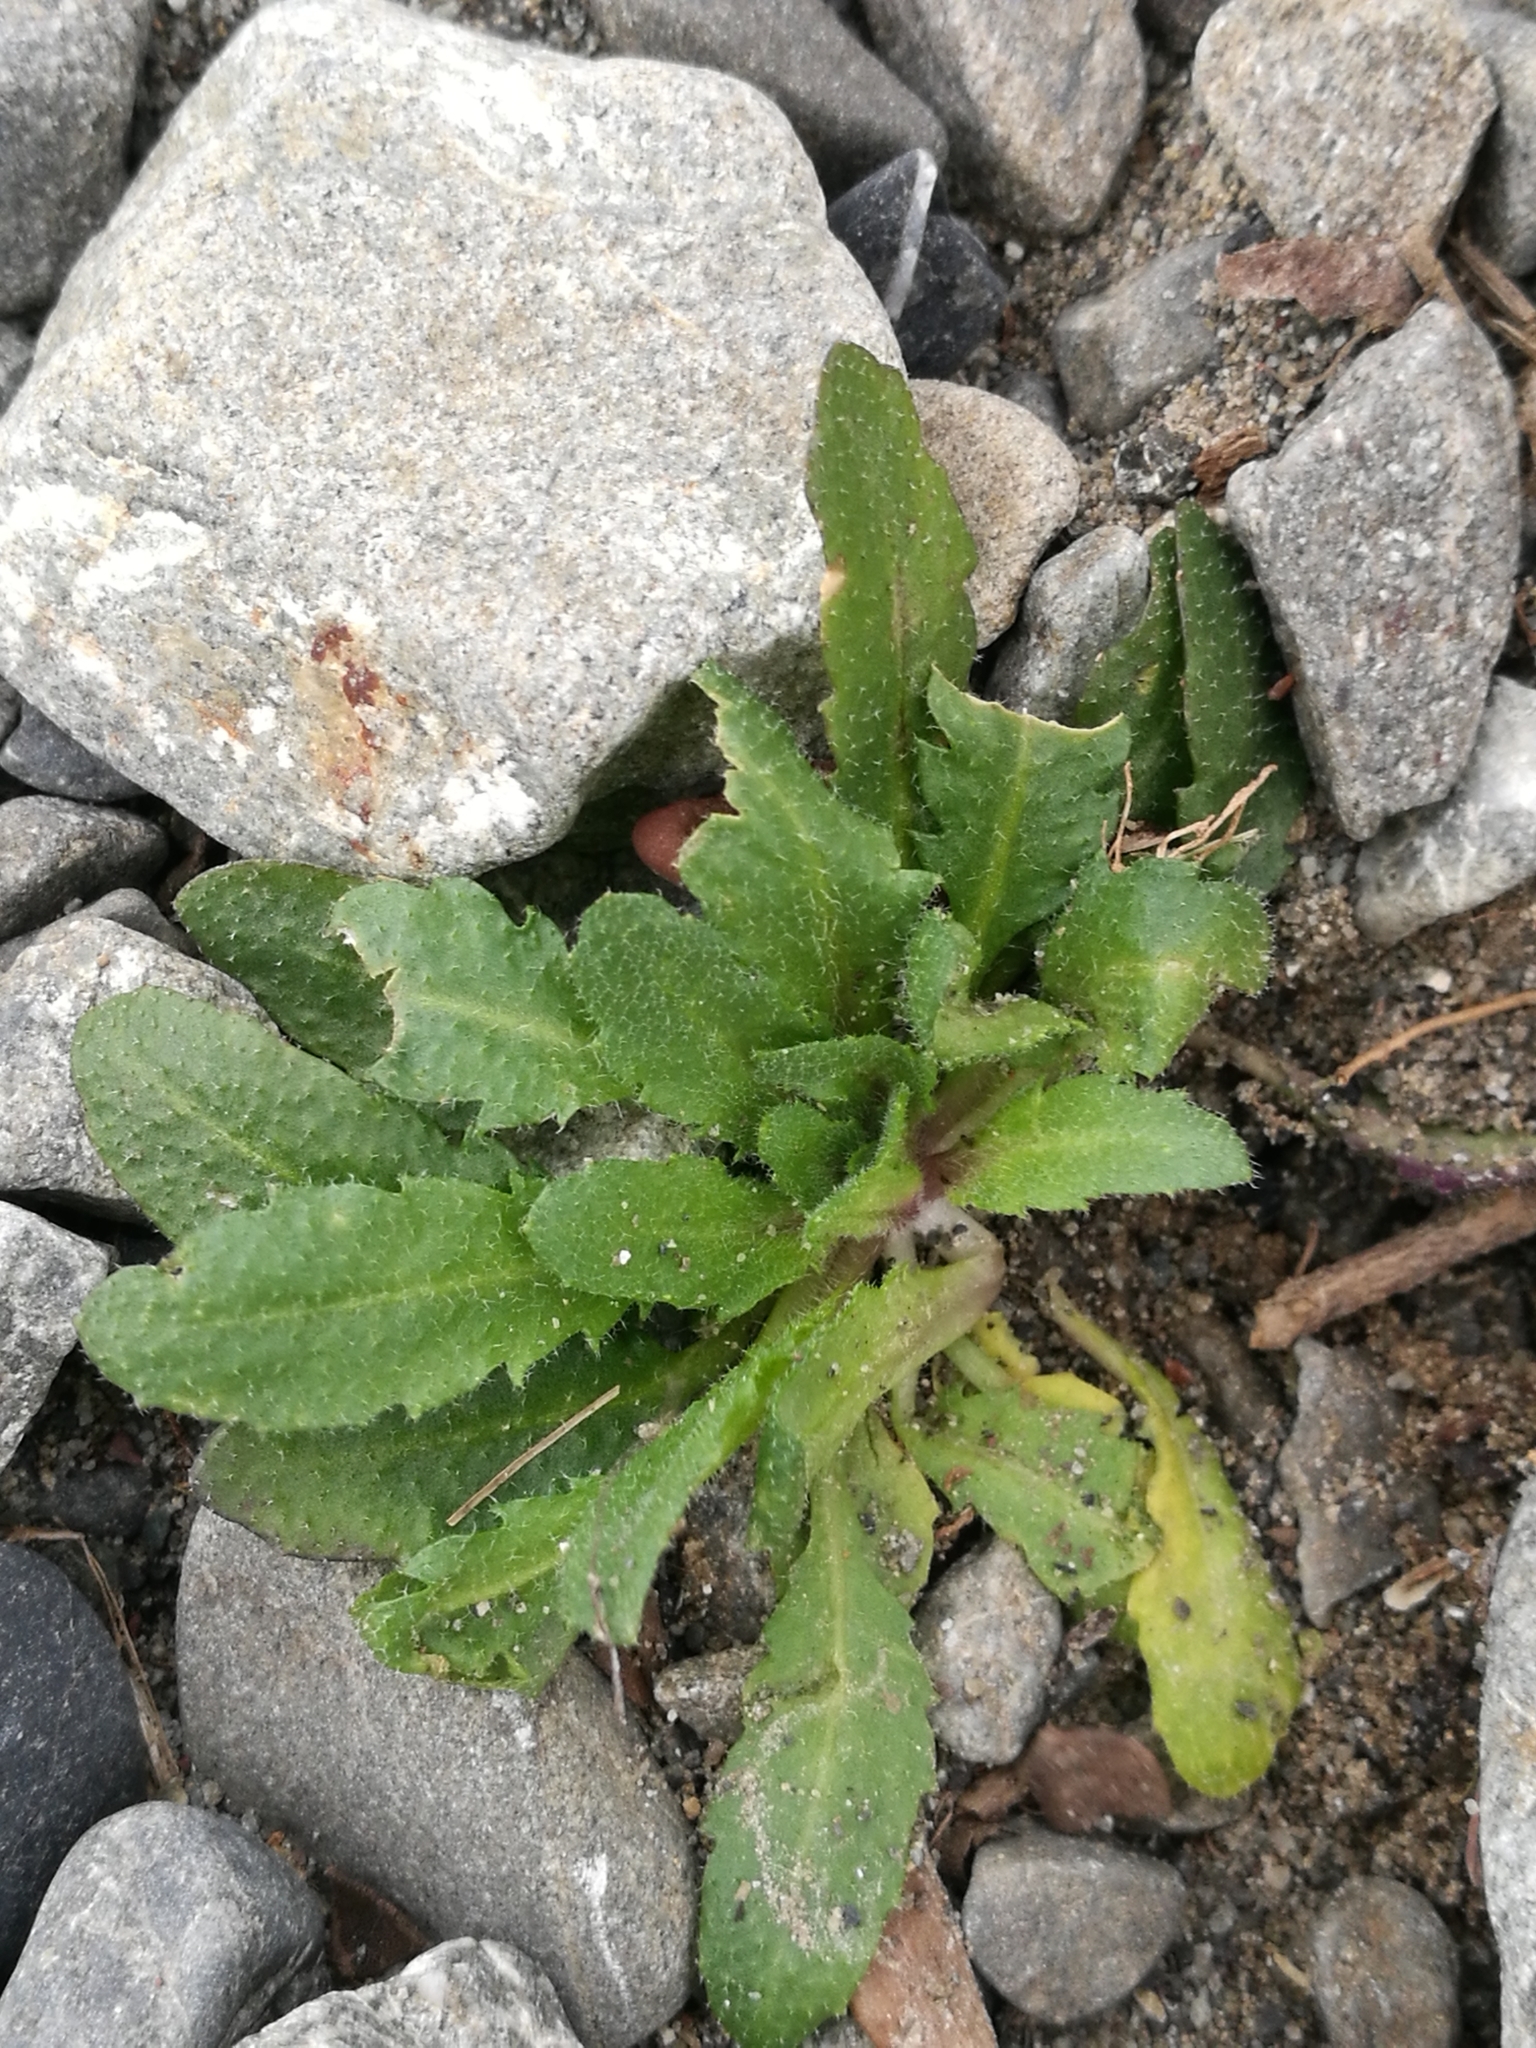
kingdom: Plantae
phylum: Tracheophyta
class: Magnoliopsida
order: Asterales
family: Asteraceae
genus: Leucanthemum
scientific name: Leucanthemum vulgare
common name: Oxeye daisy
